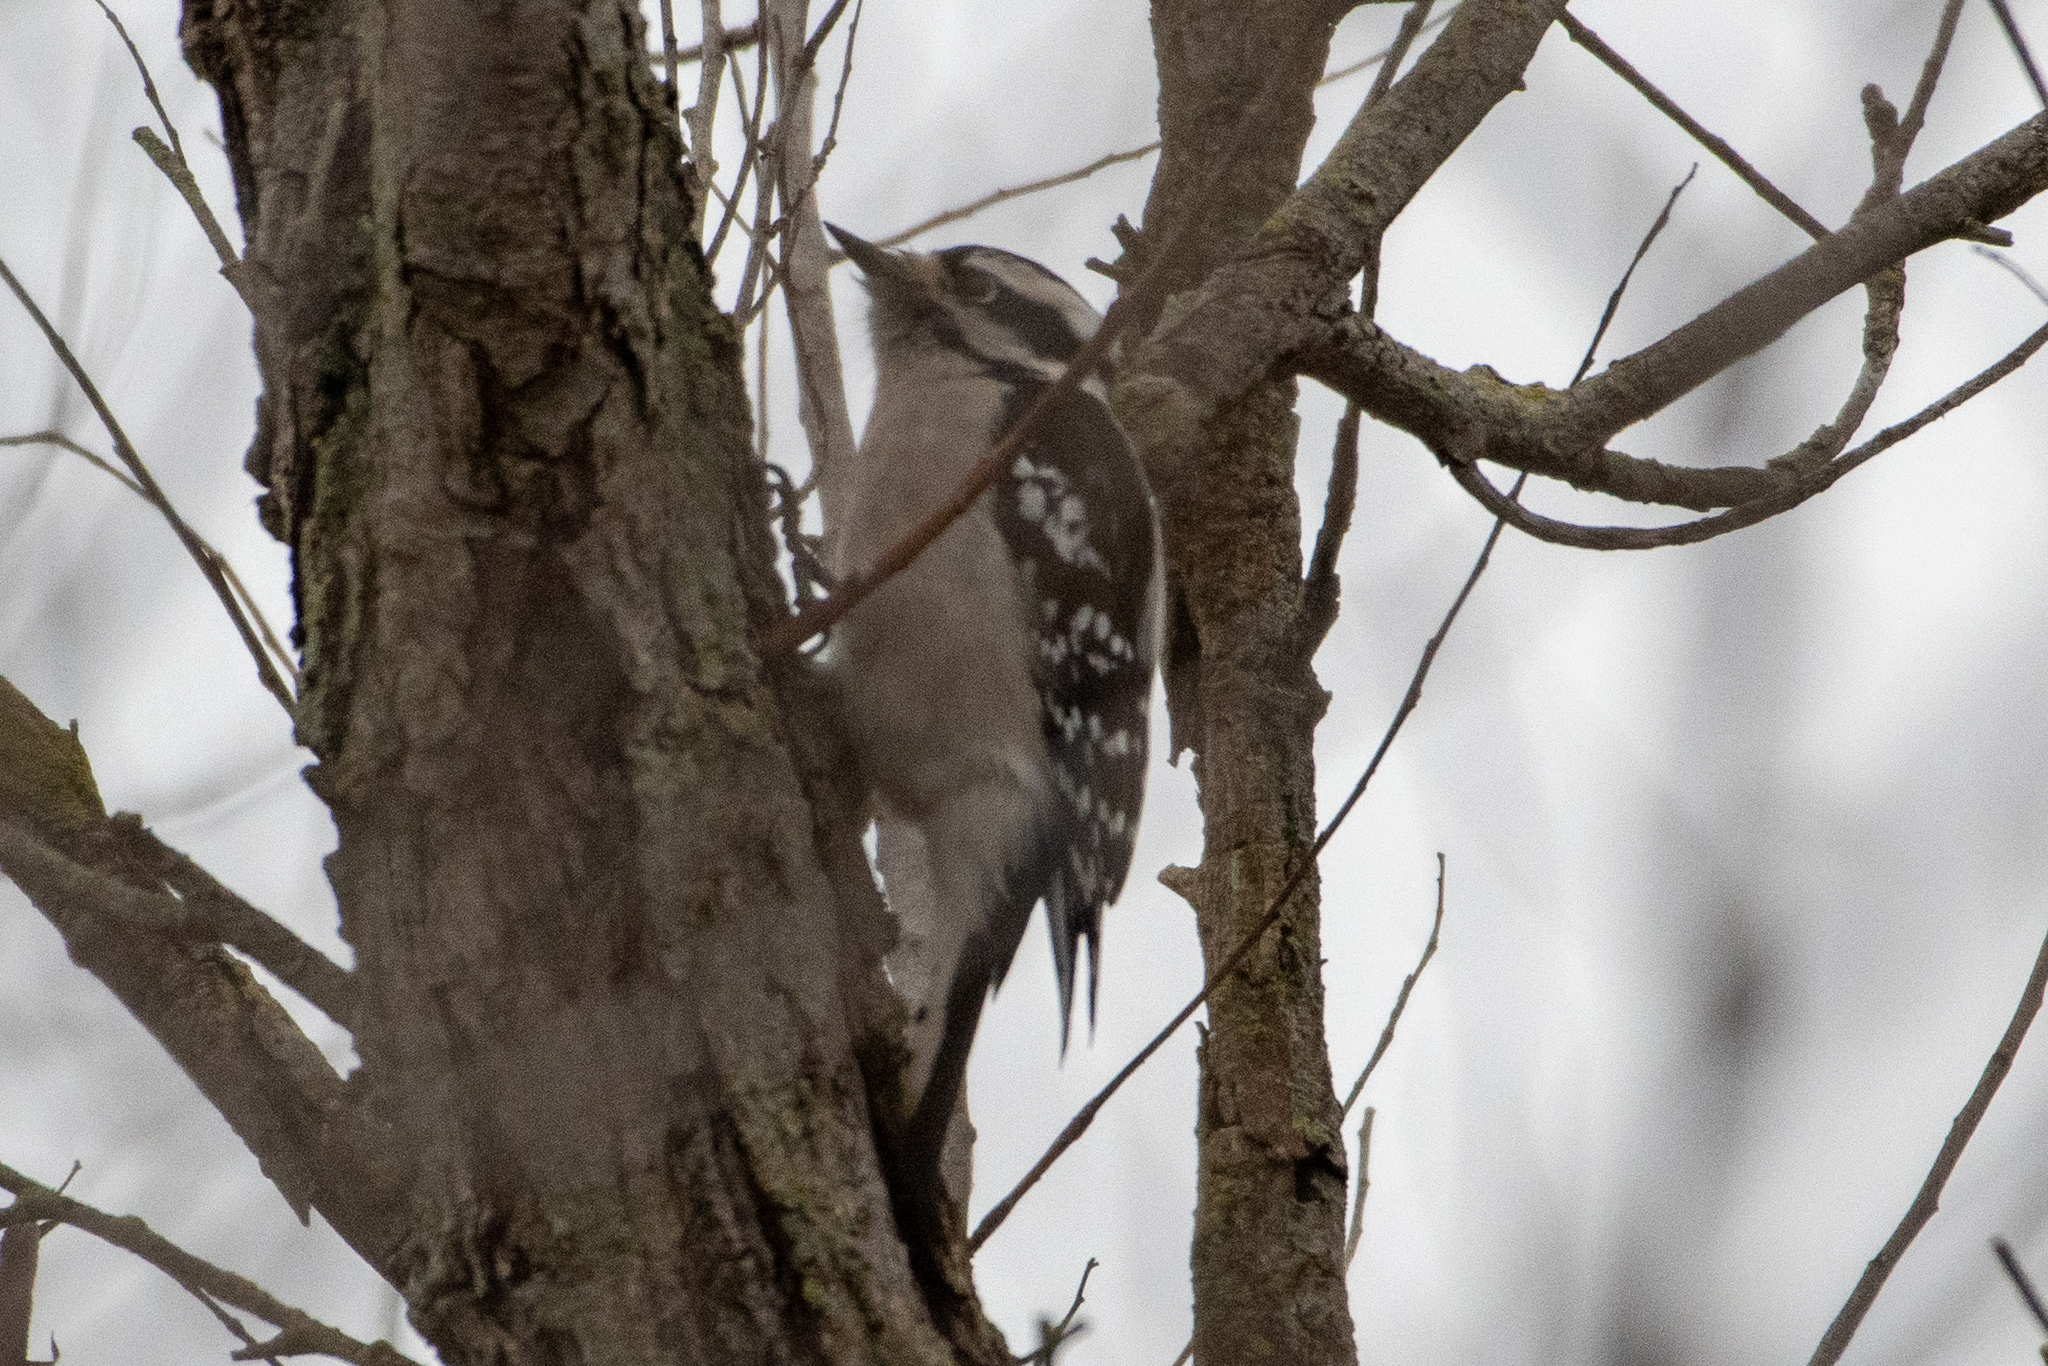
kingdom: Animalia
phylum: Chordata
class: Aves
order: Piciformes
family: Picidae
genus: Dryobates
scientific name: Dryobates pubescens
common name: Downy woodpecker
